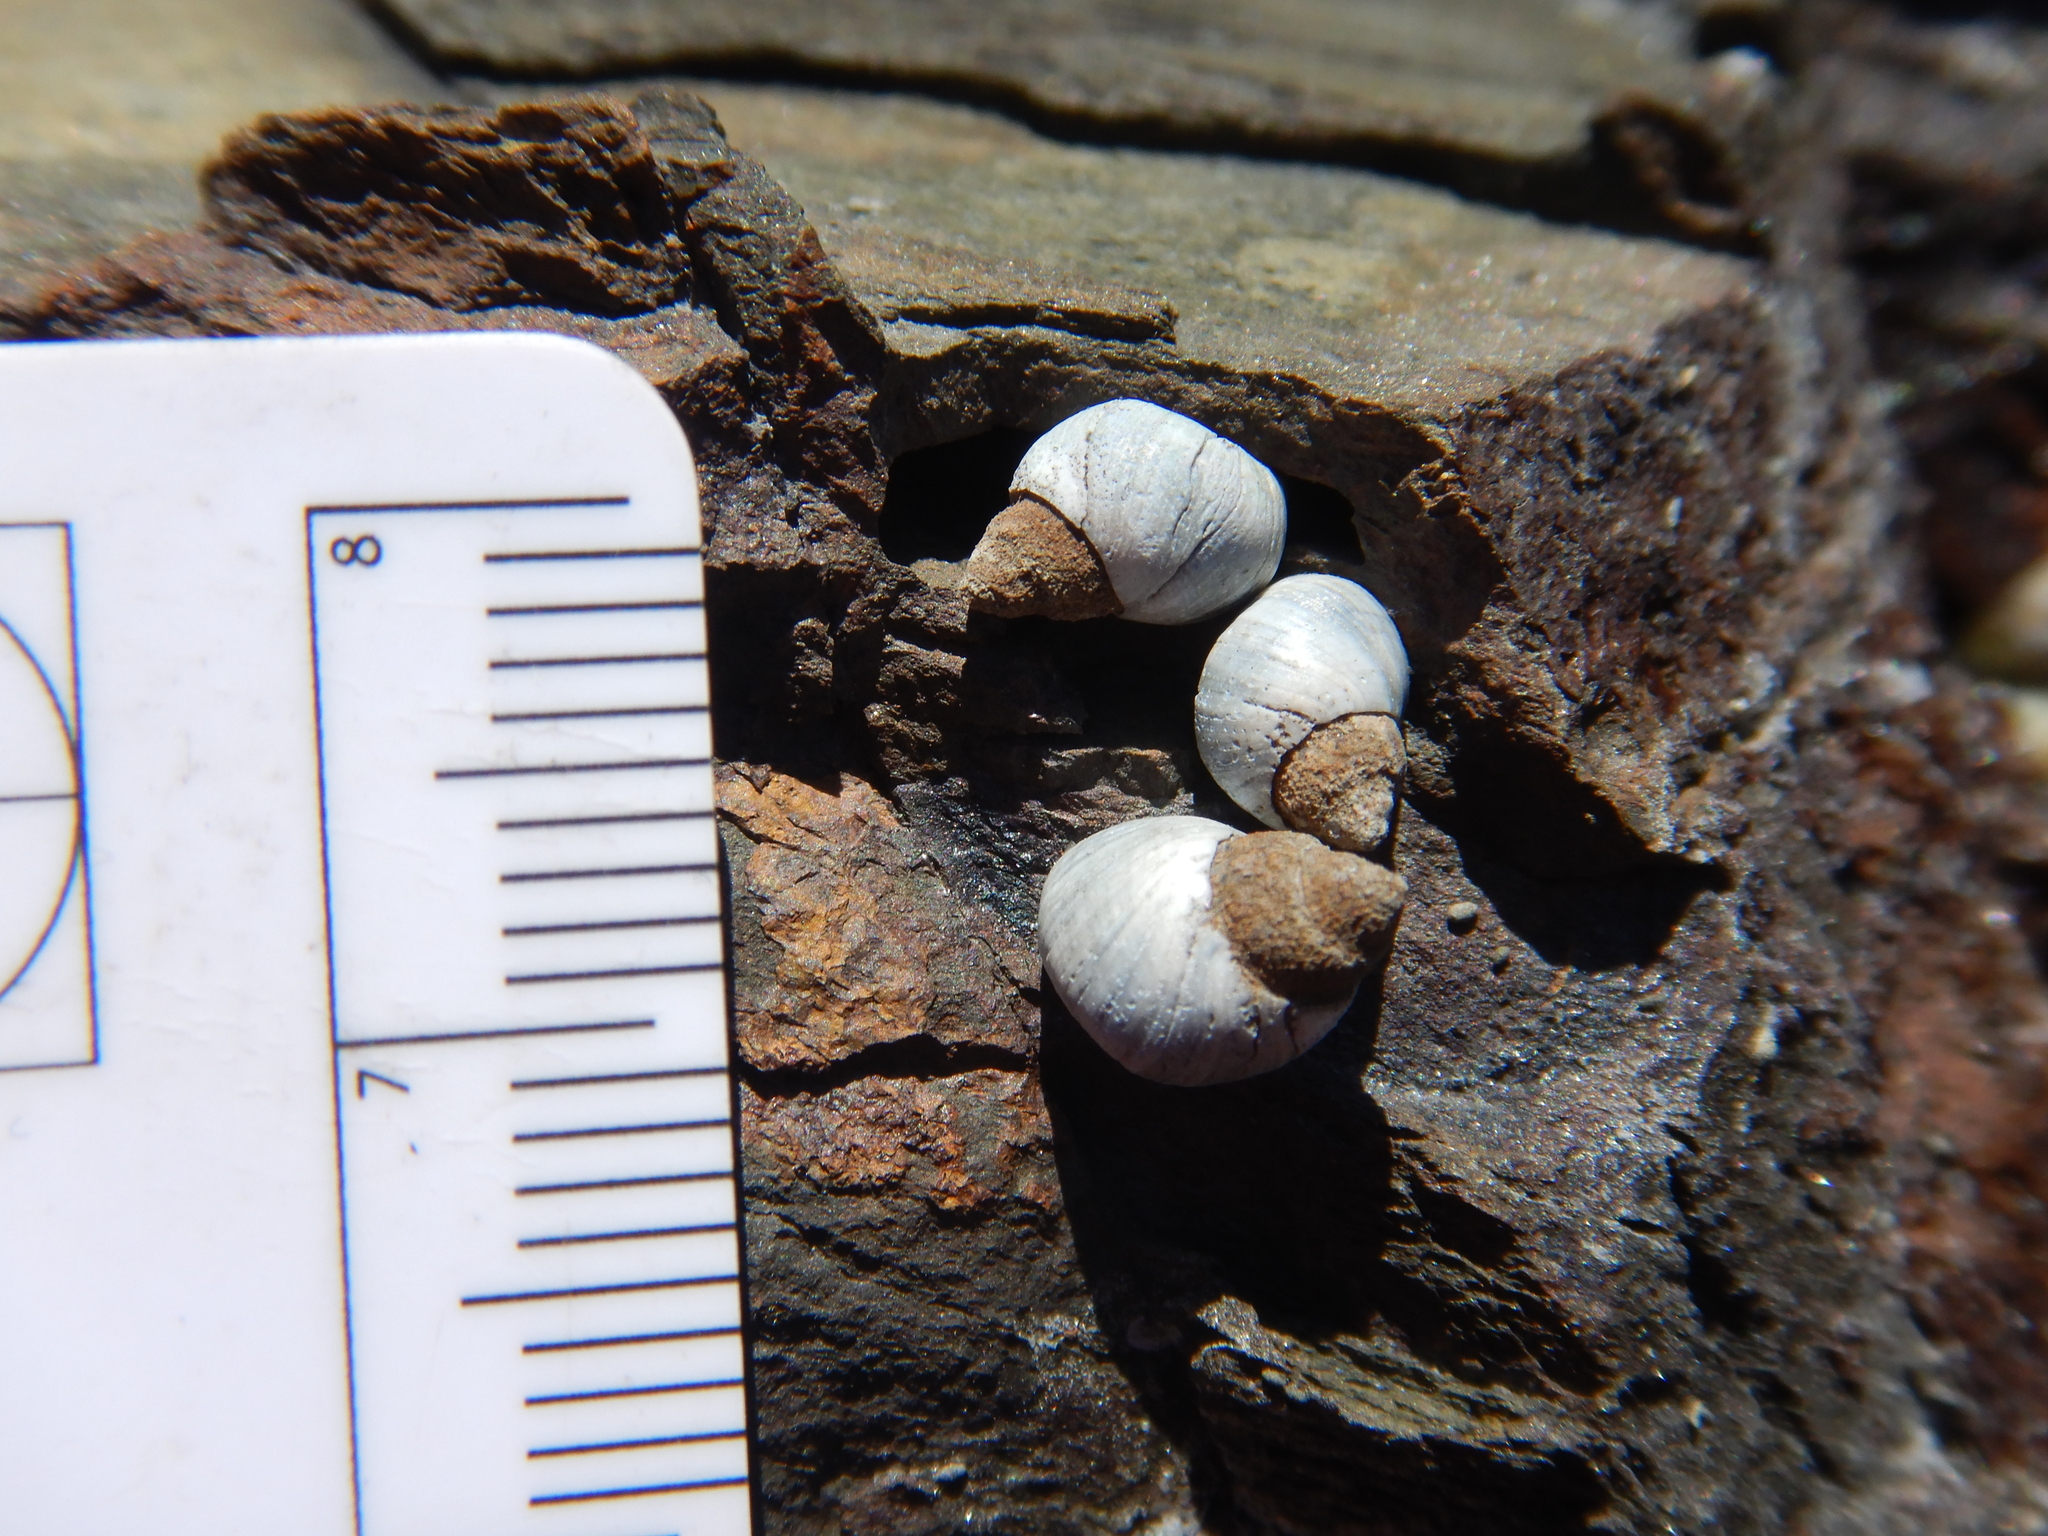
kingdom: Animalia
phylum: Mollusca
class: Gastropoda
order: Littorinimorpha
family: Littorinidae
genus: Austrolittorina
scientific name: Austrolittorina unifasciata
